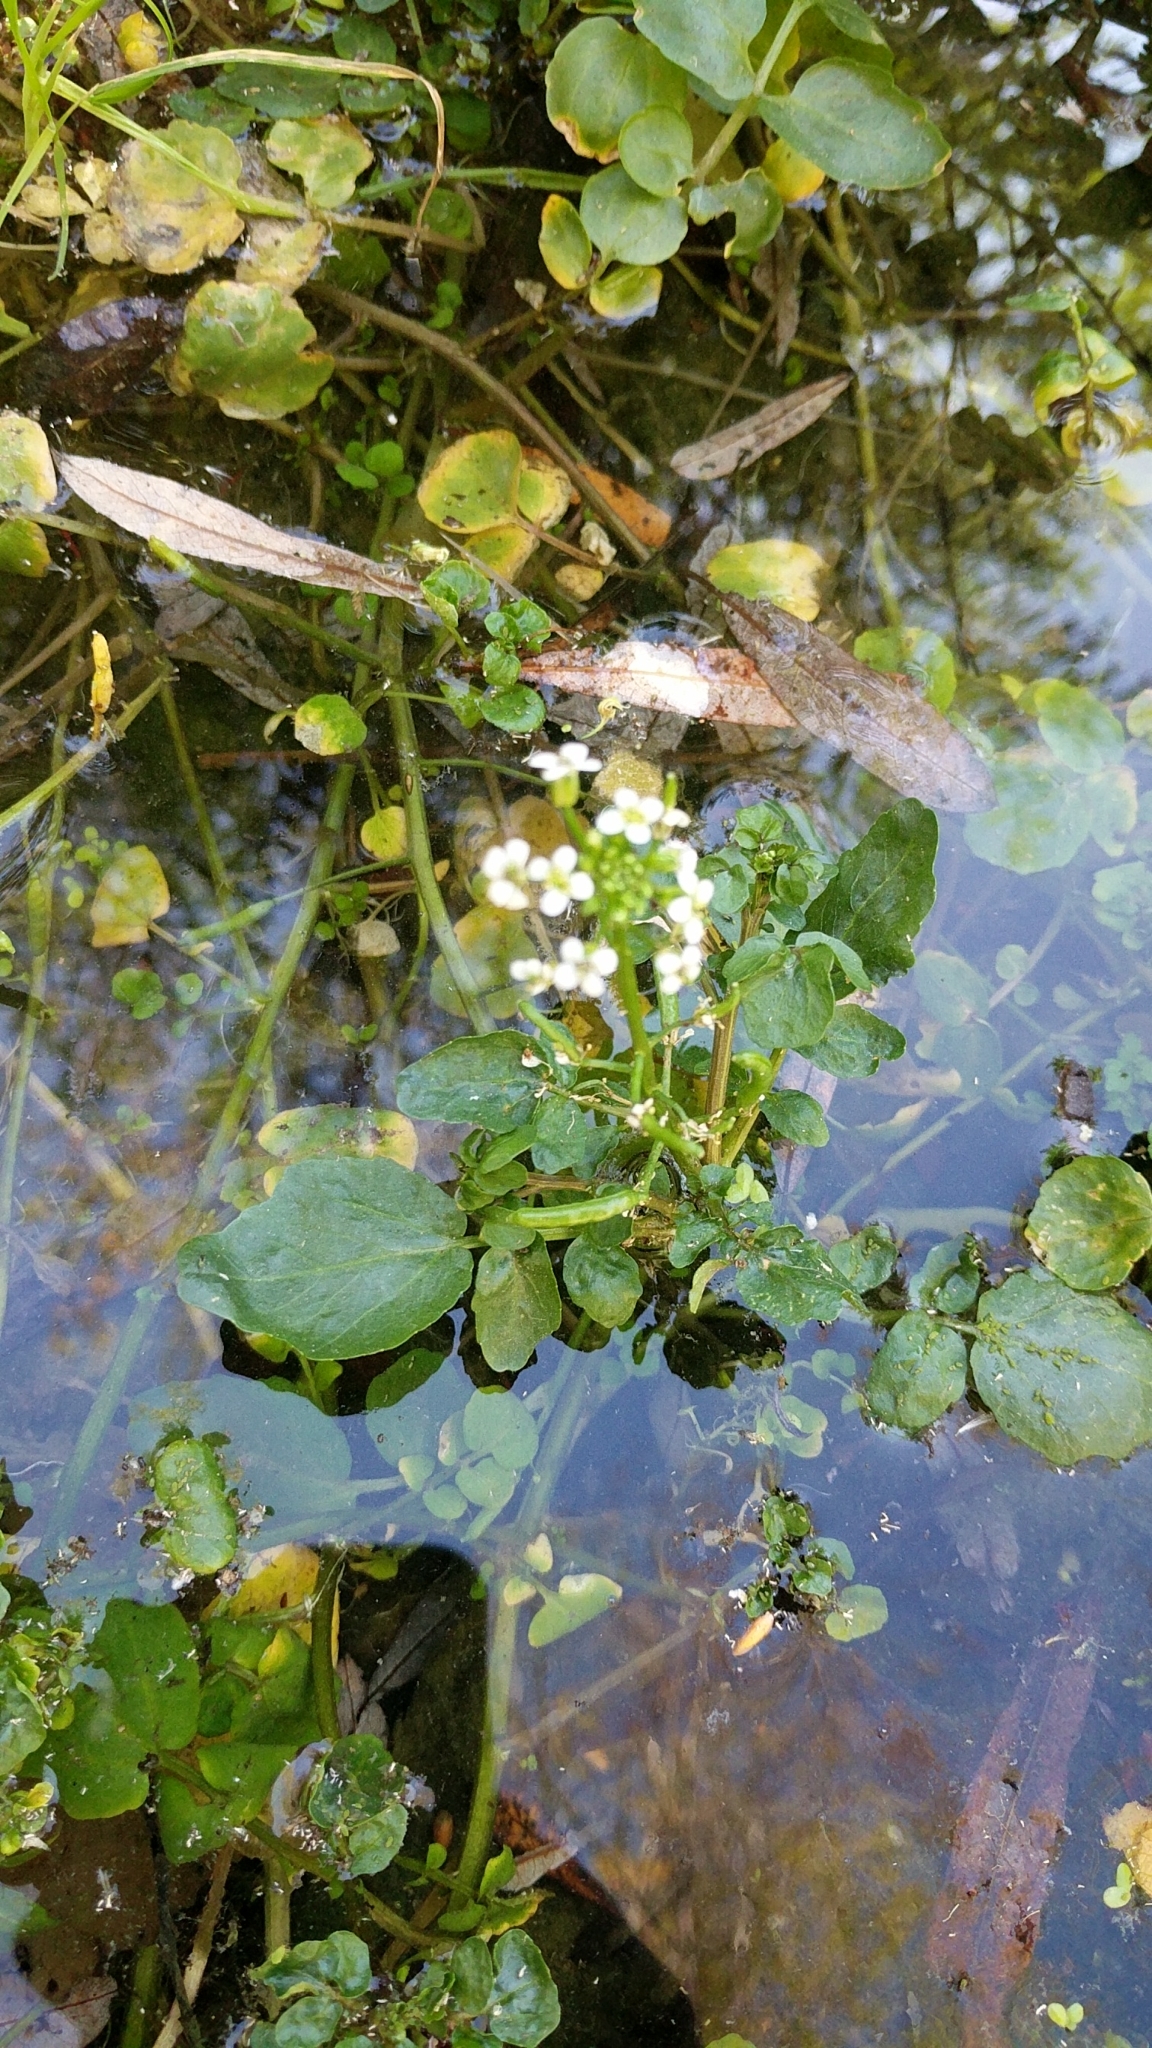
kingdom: Plantae
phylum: Tracheophyta
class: Magnoliopsida
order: Brassicales
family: Brassicaceae
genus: Nasturtium
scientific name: Nasturtium officinale
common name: Watercress
